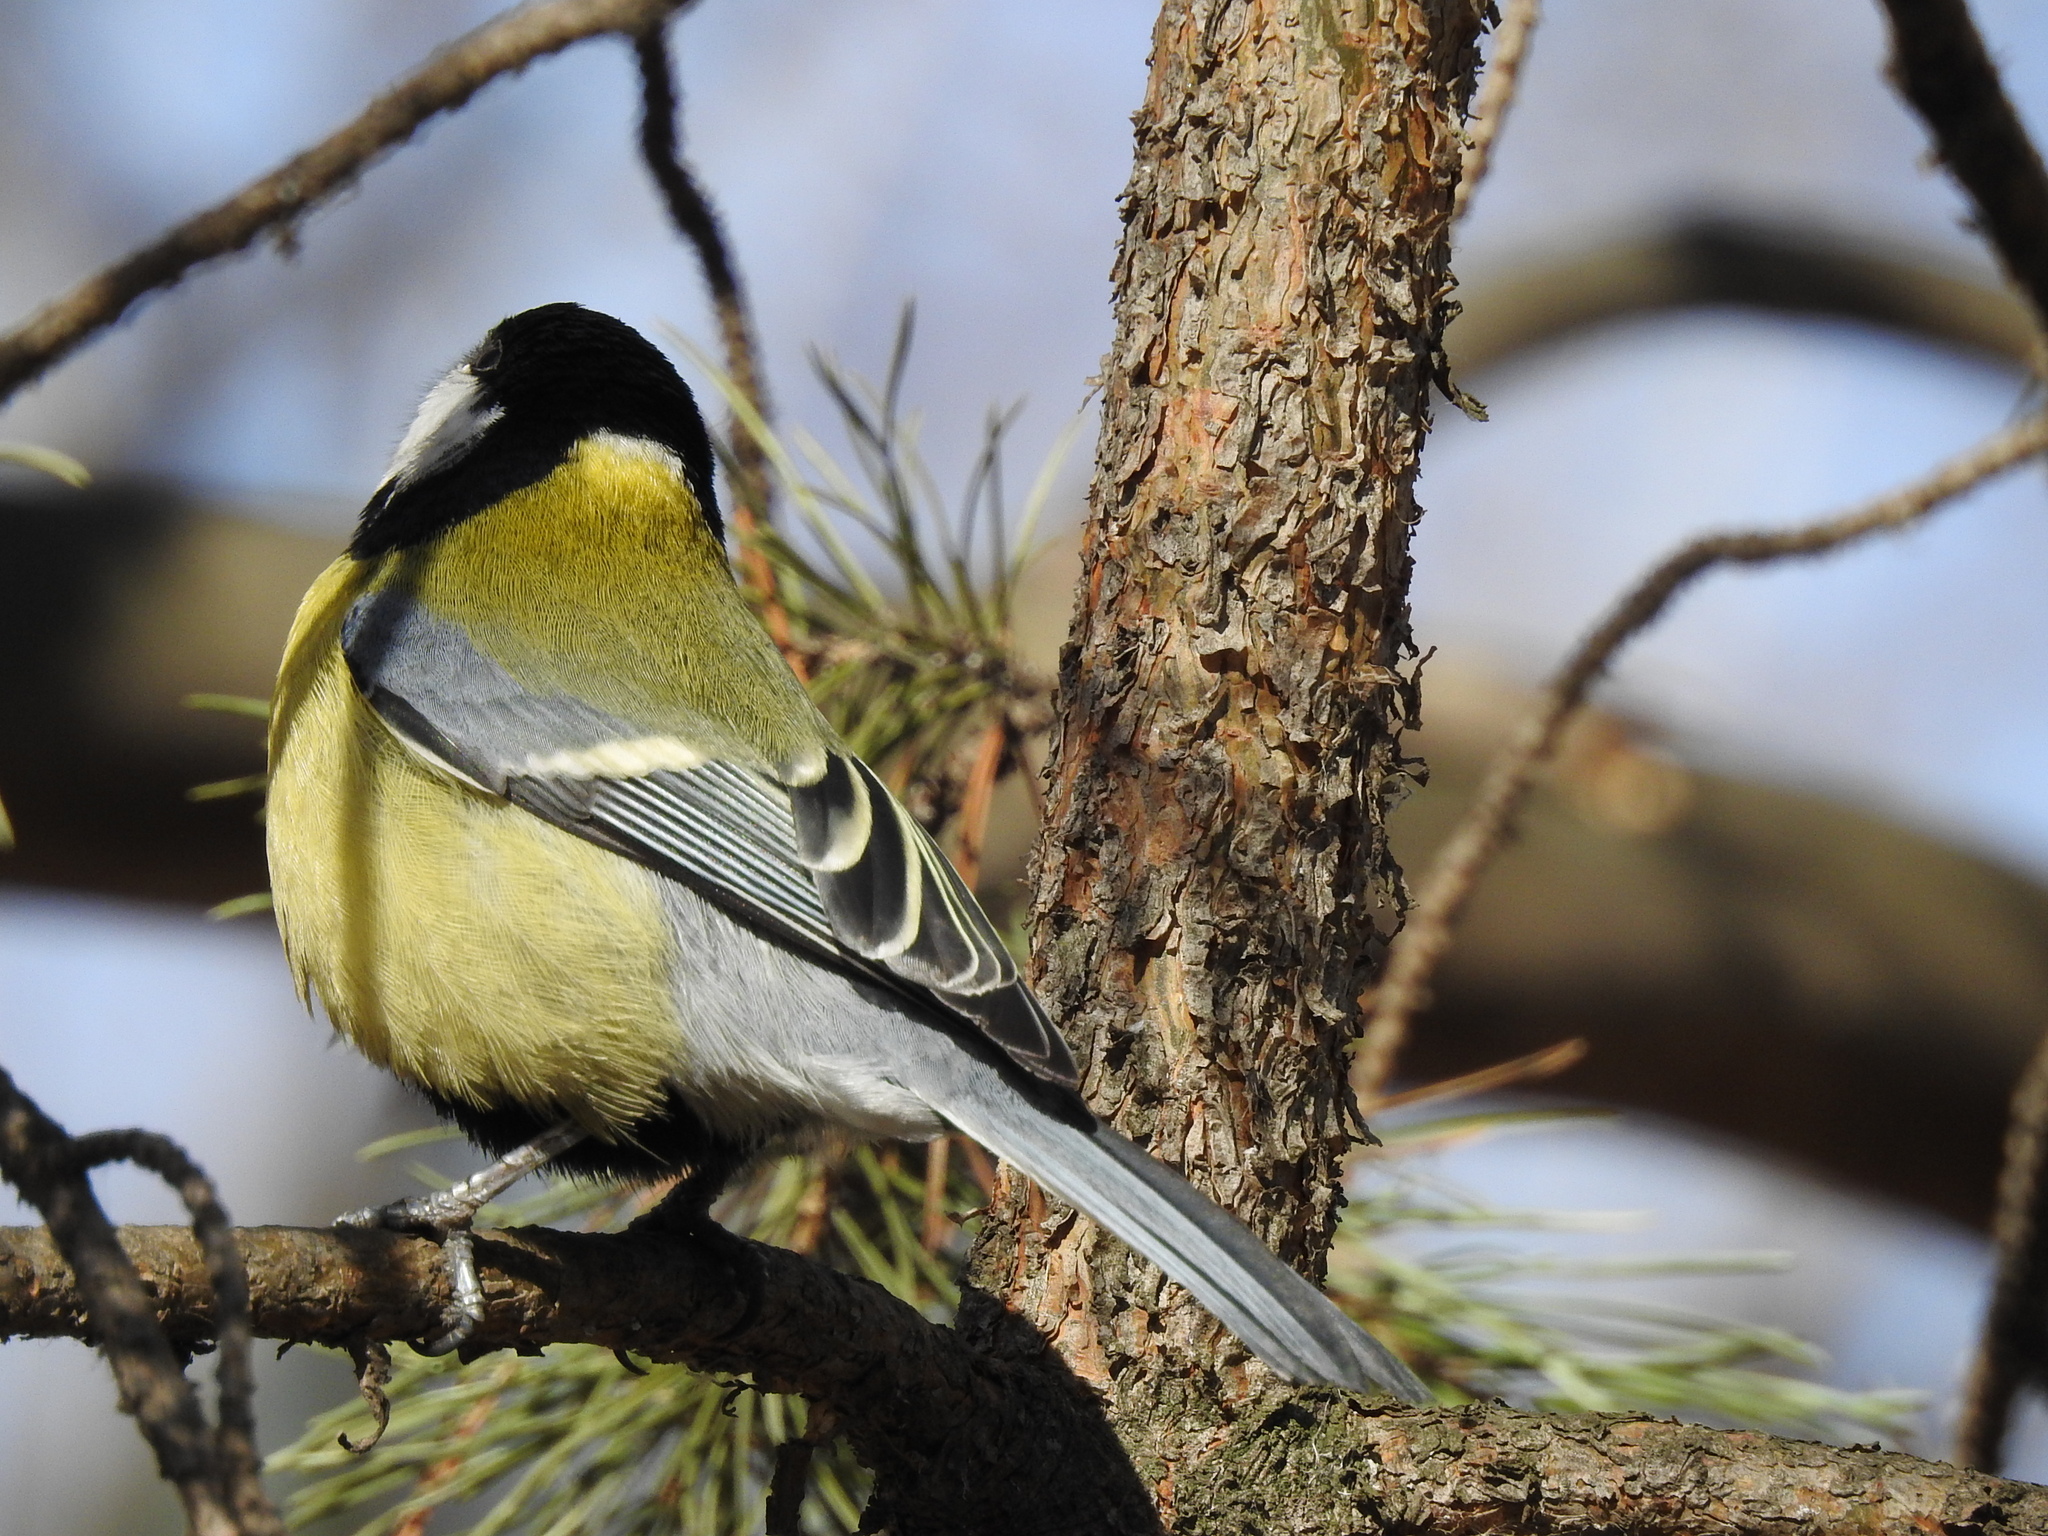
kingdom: Animalia
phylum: Chordata
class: Aves
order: Passeriformes
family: Paridae
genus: Parus
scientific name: Parus major
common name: Great tit
